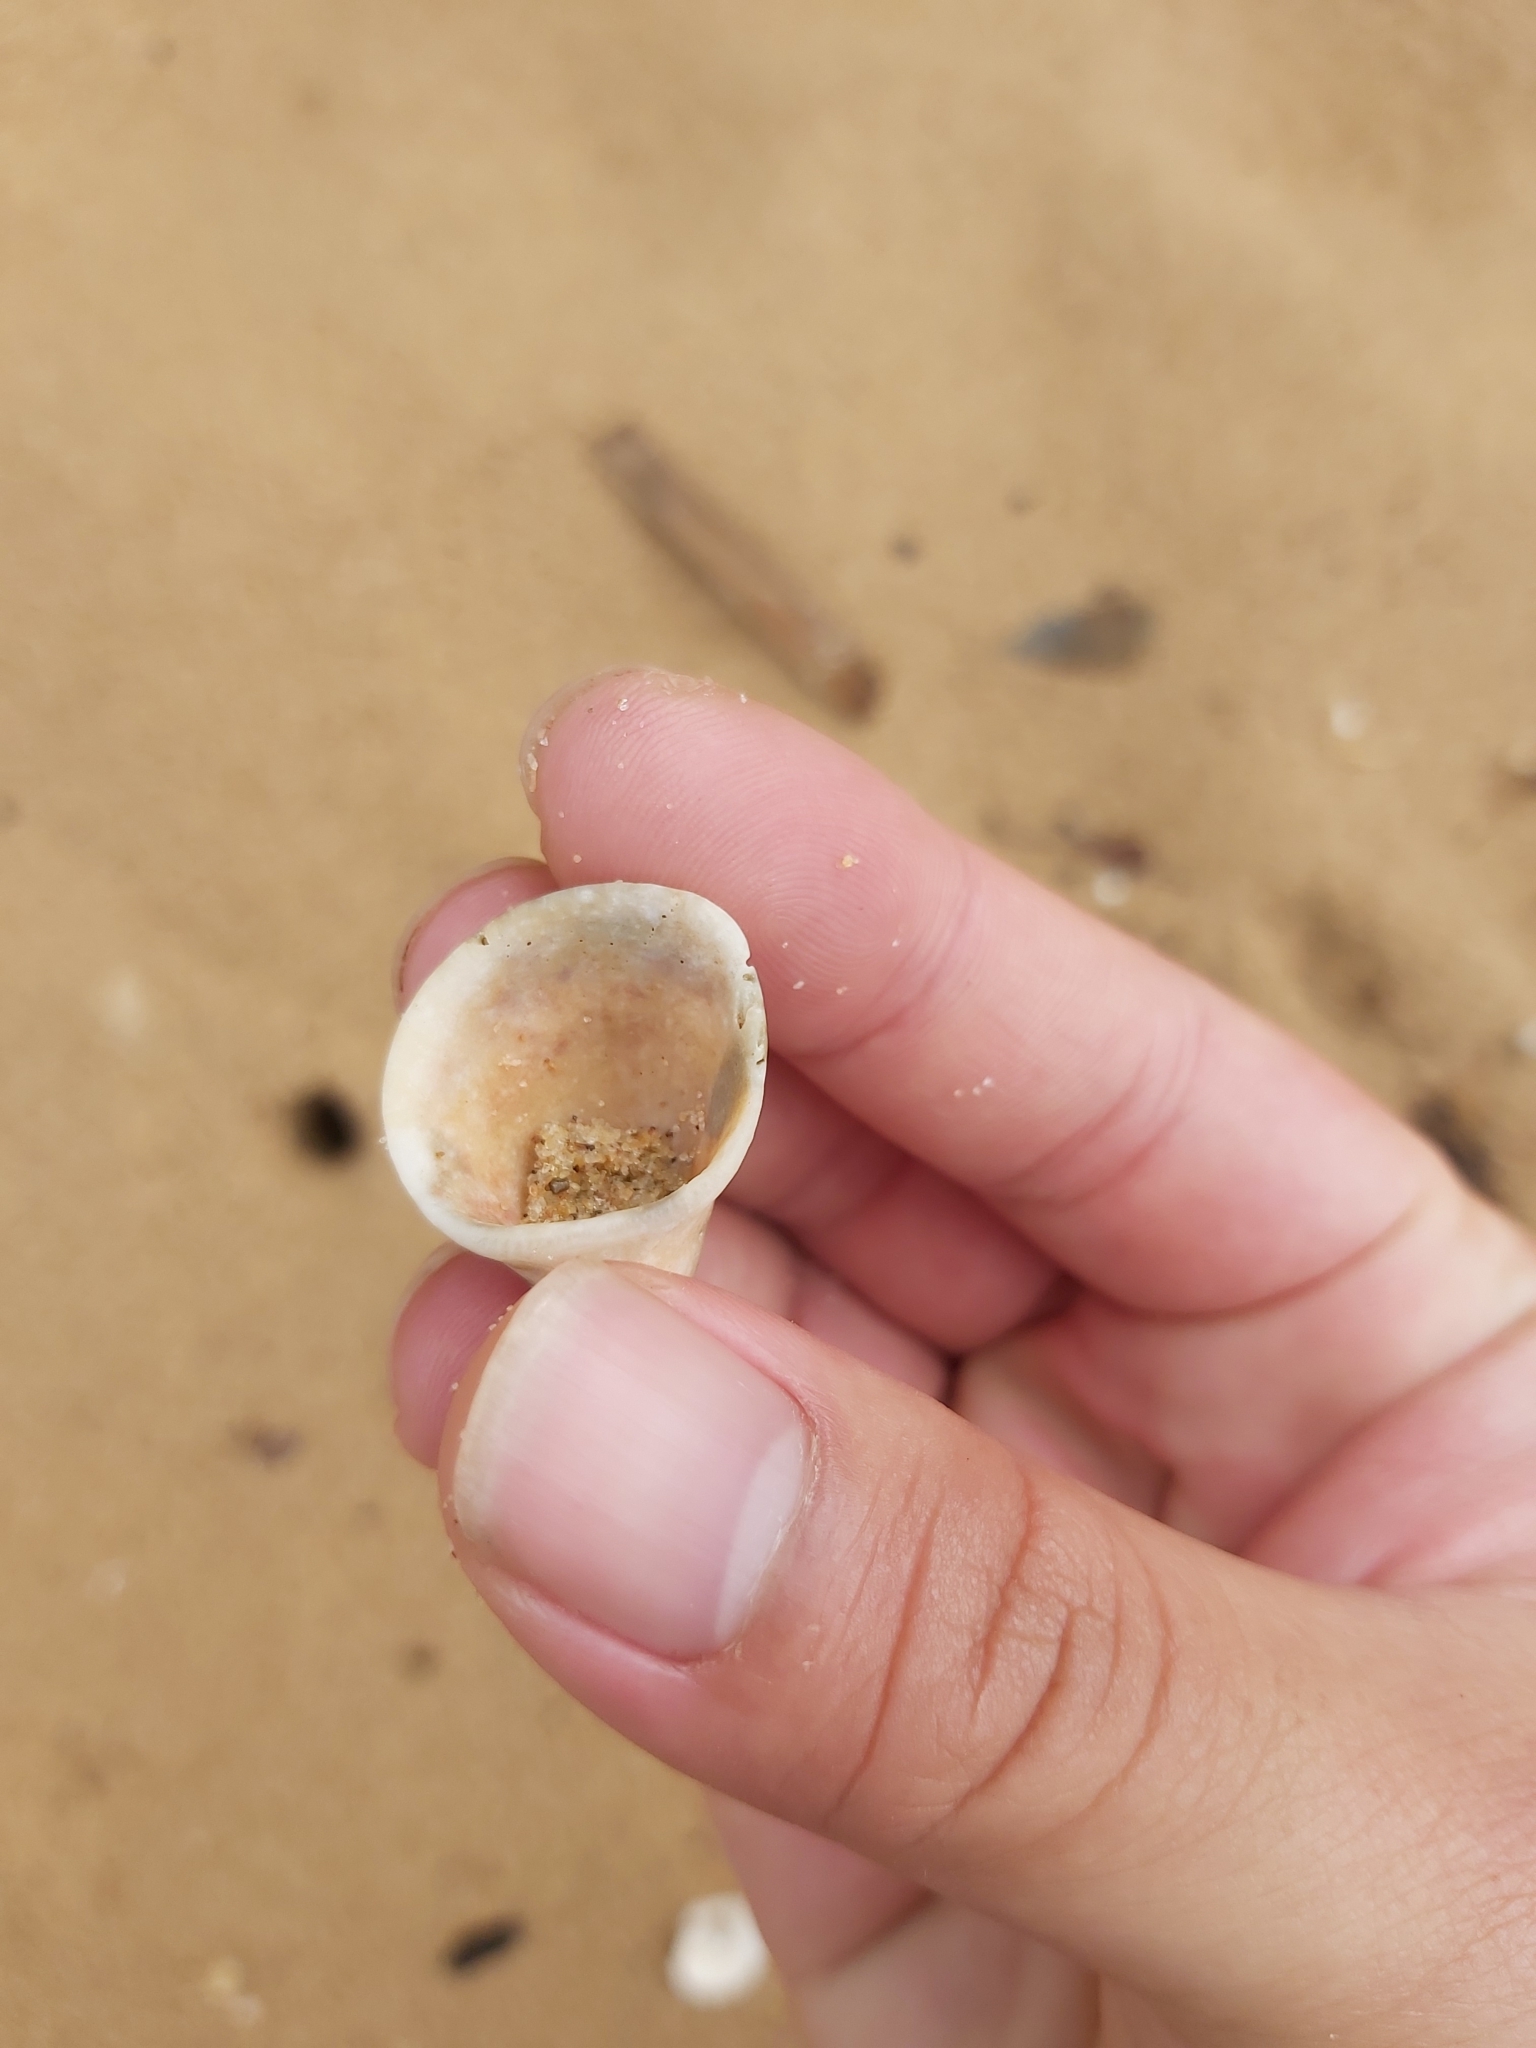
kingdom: Animalia
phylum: Mollusca
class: Bivalvia
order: Arcida
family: Arcidae
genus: Anadara
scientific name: Anadara pilula
